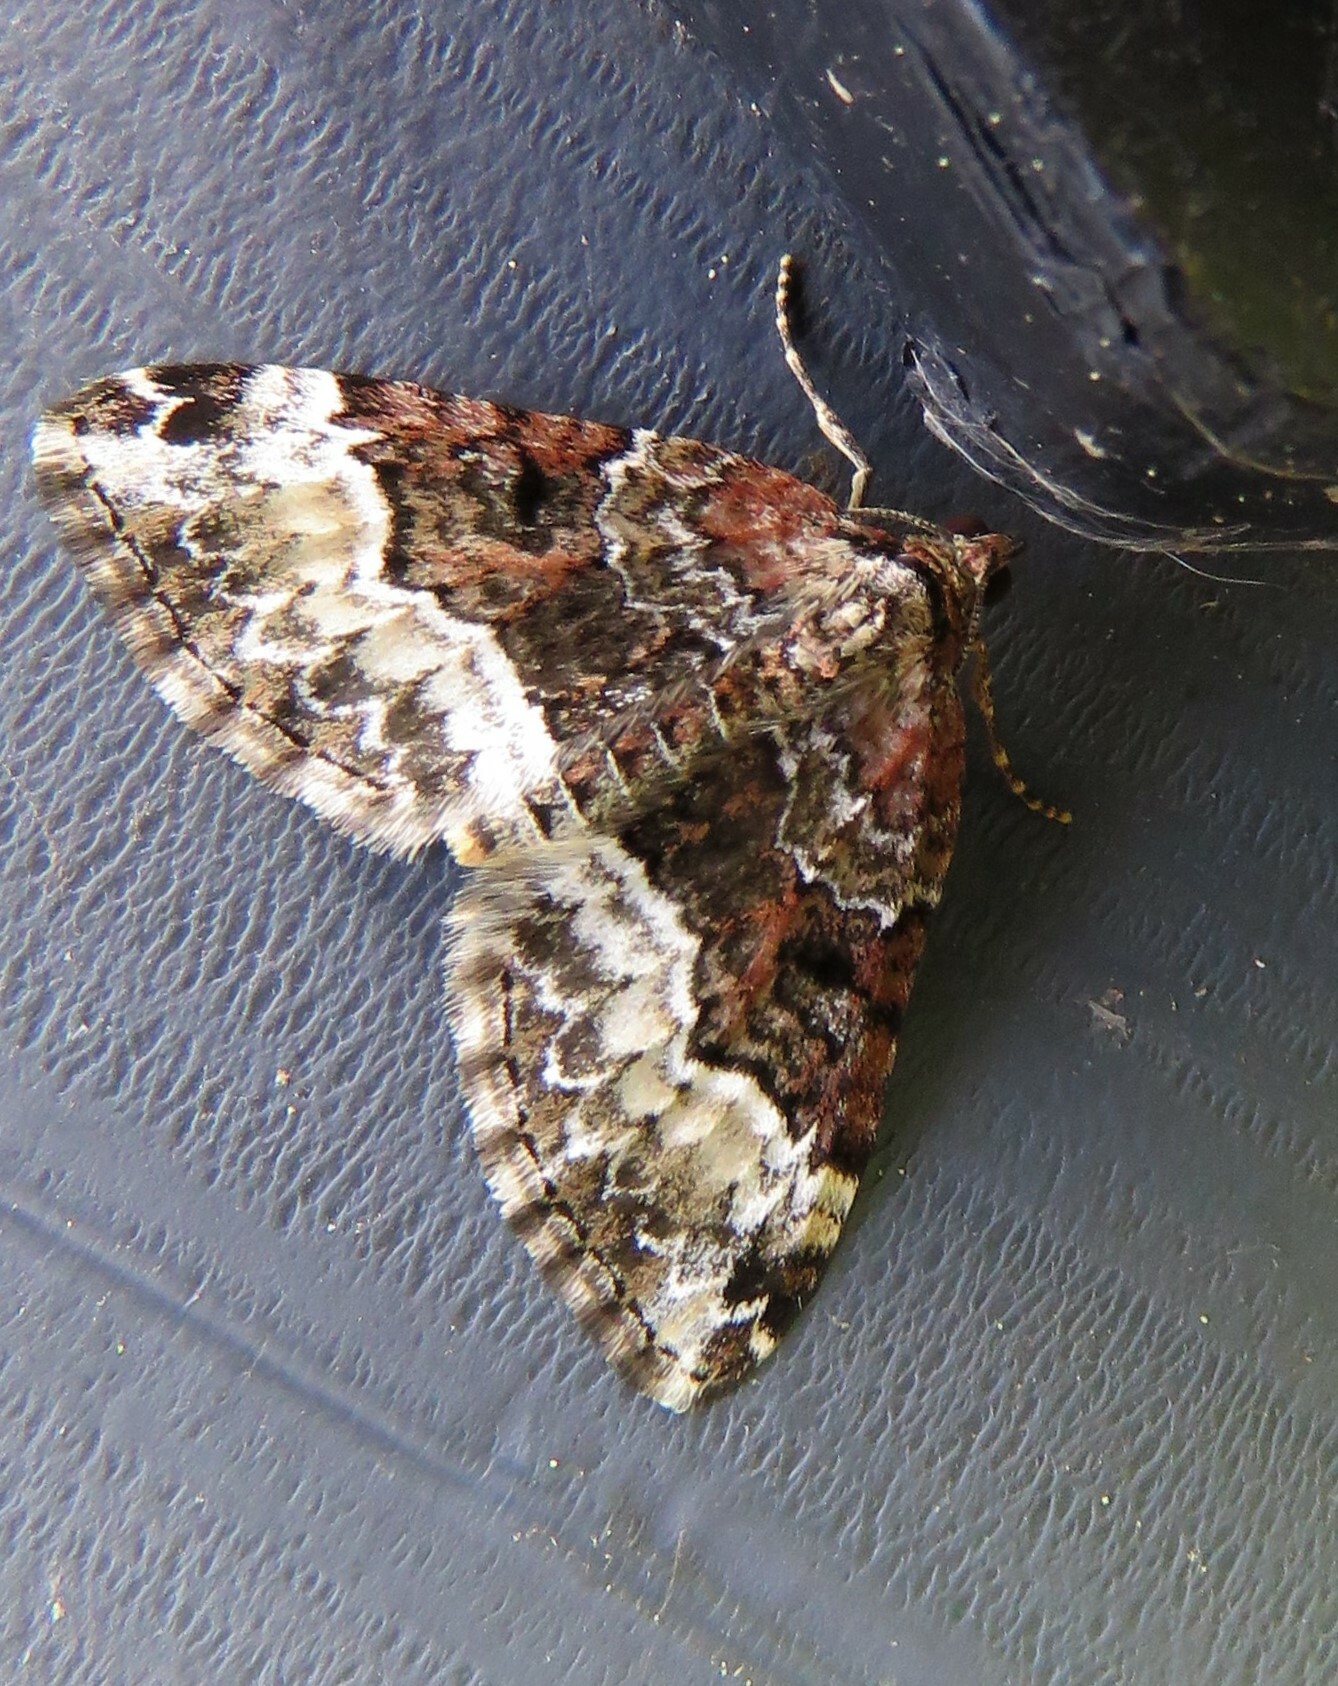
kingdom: Animalia
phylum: Arthropoda
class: Insecta
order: Lepidoptera
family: Geometridae
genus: Euphyia
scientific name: Euphyia intermediata
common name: Sharp-angled carpet
